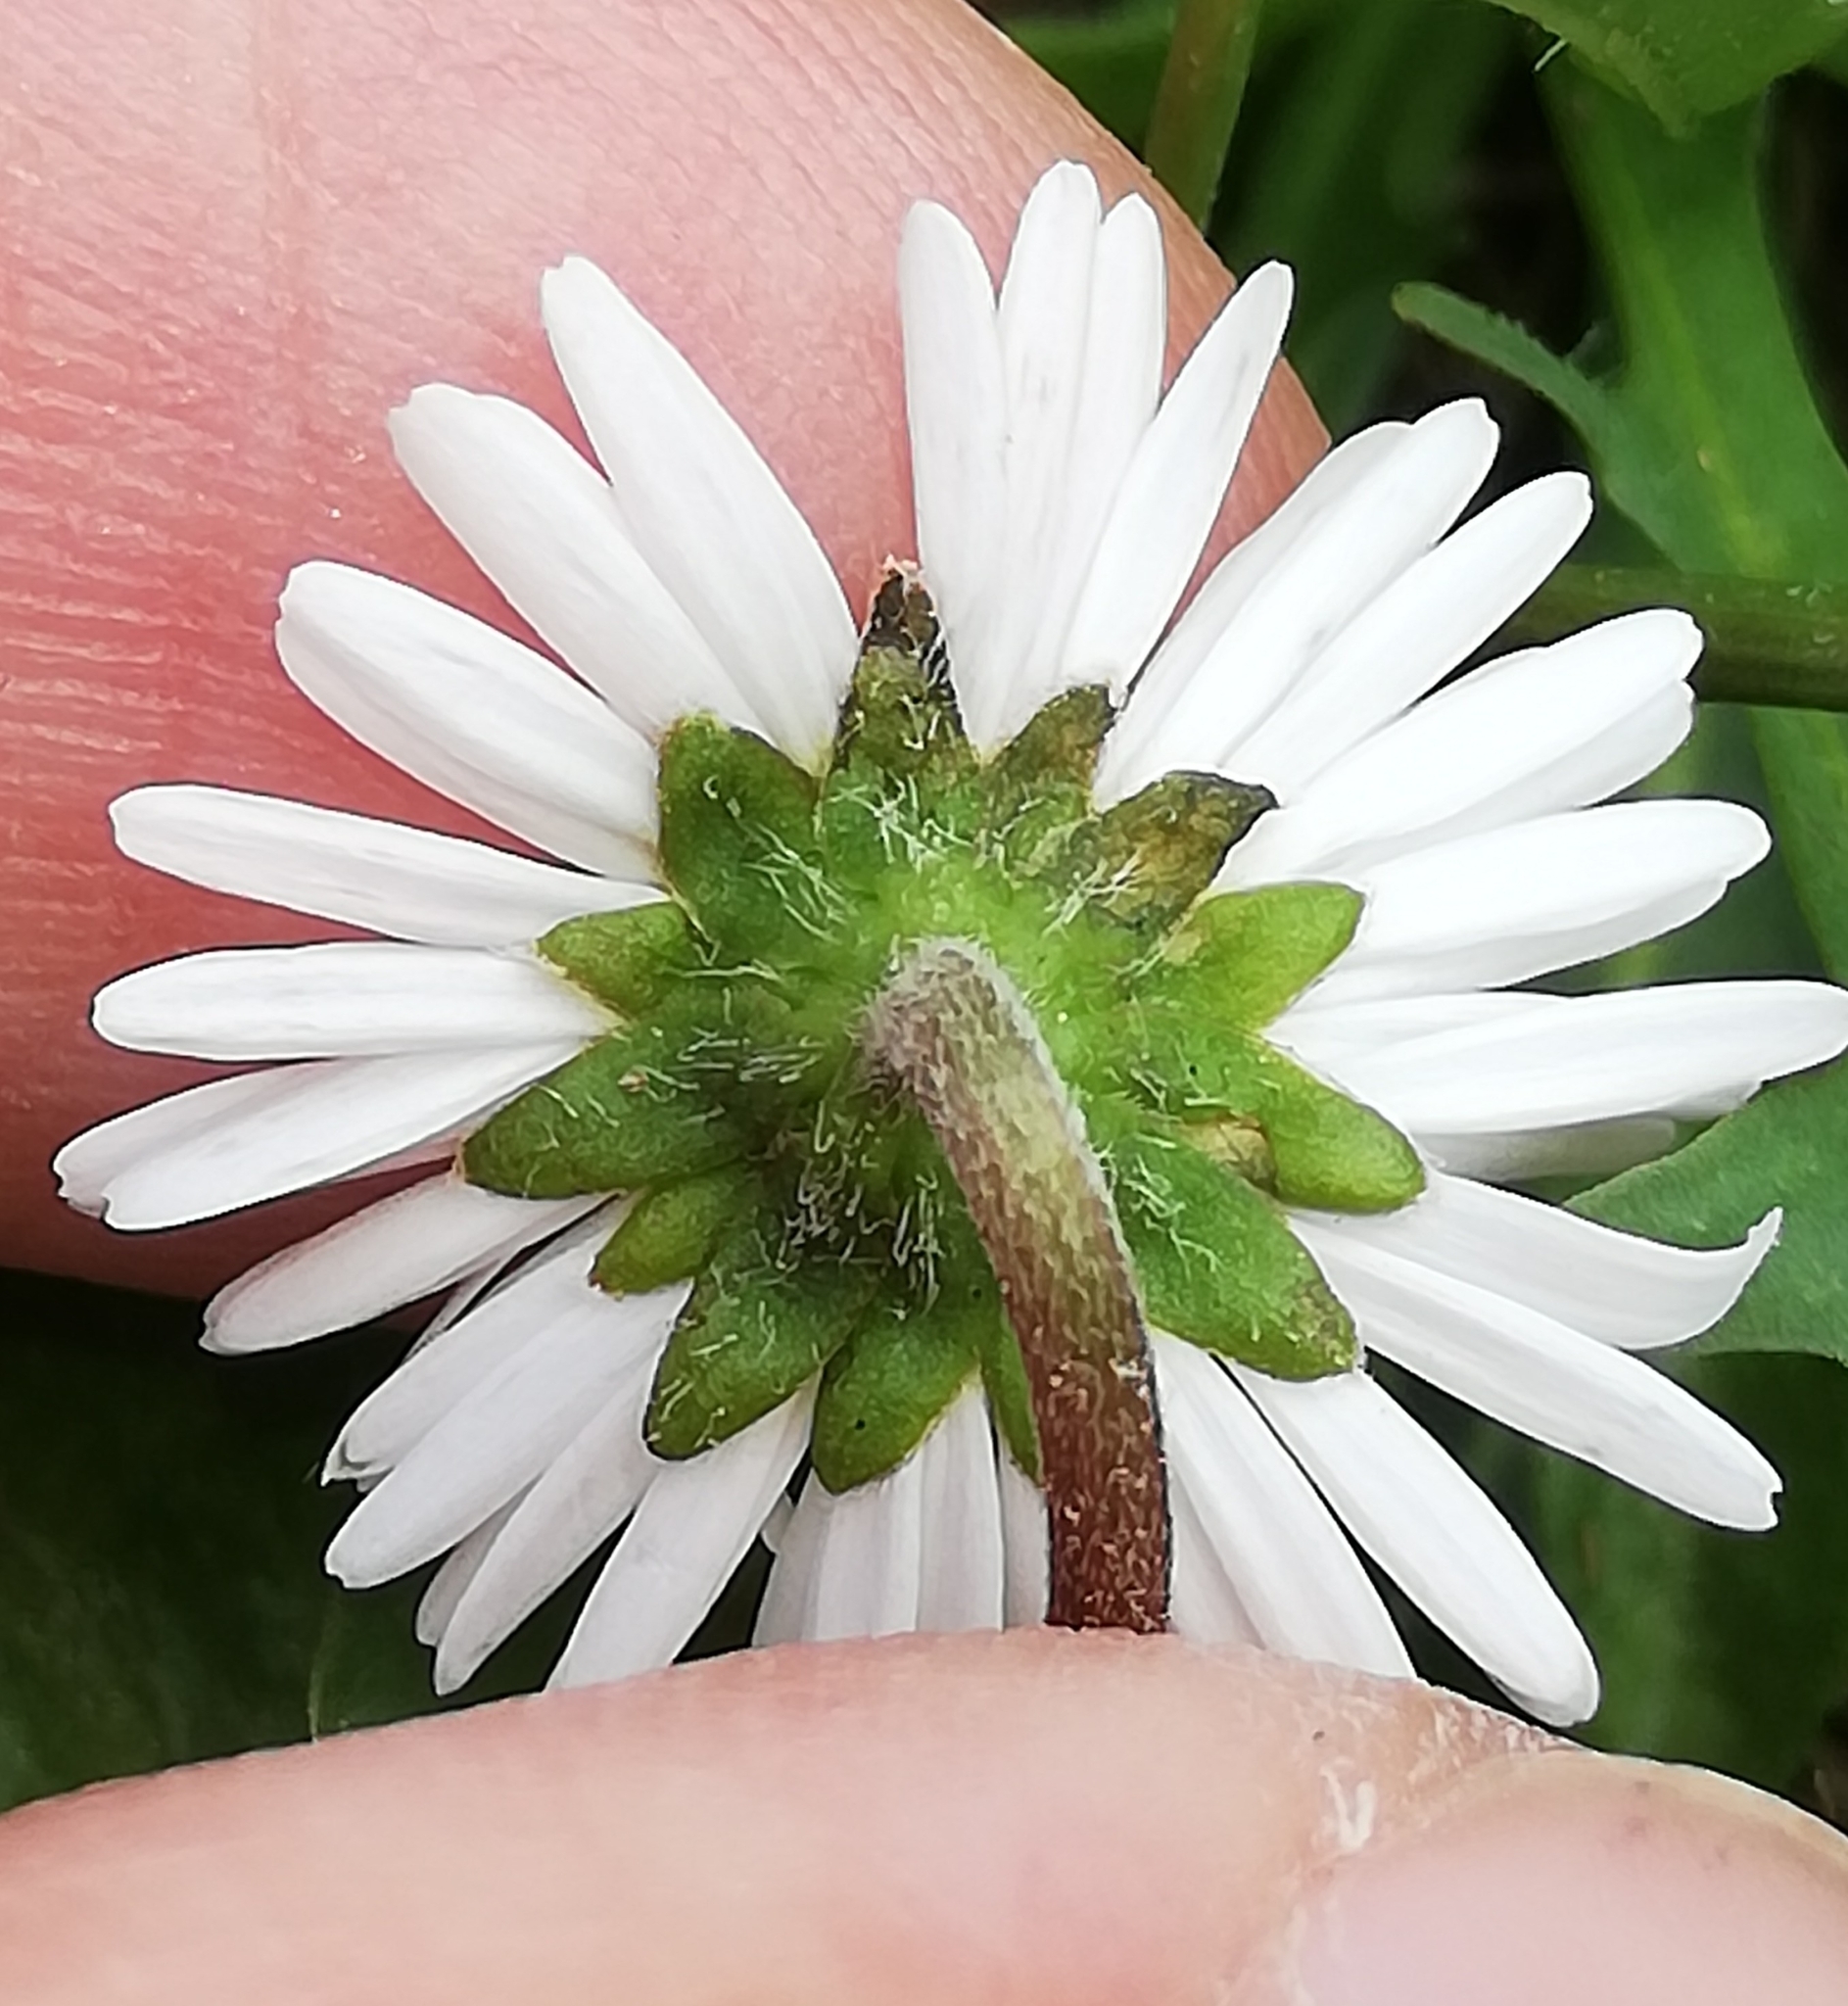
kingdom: Plantae
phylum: Tracheophyta
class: Magnoliopsida
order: Asterales
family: Asteraceae
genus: Bellis
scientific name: Bellis perennis
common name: Lawndaisy
